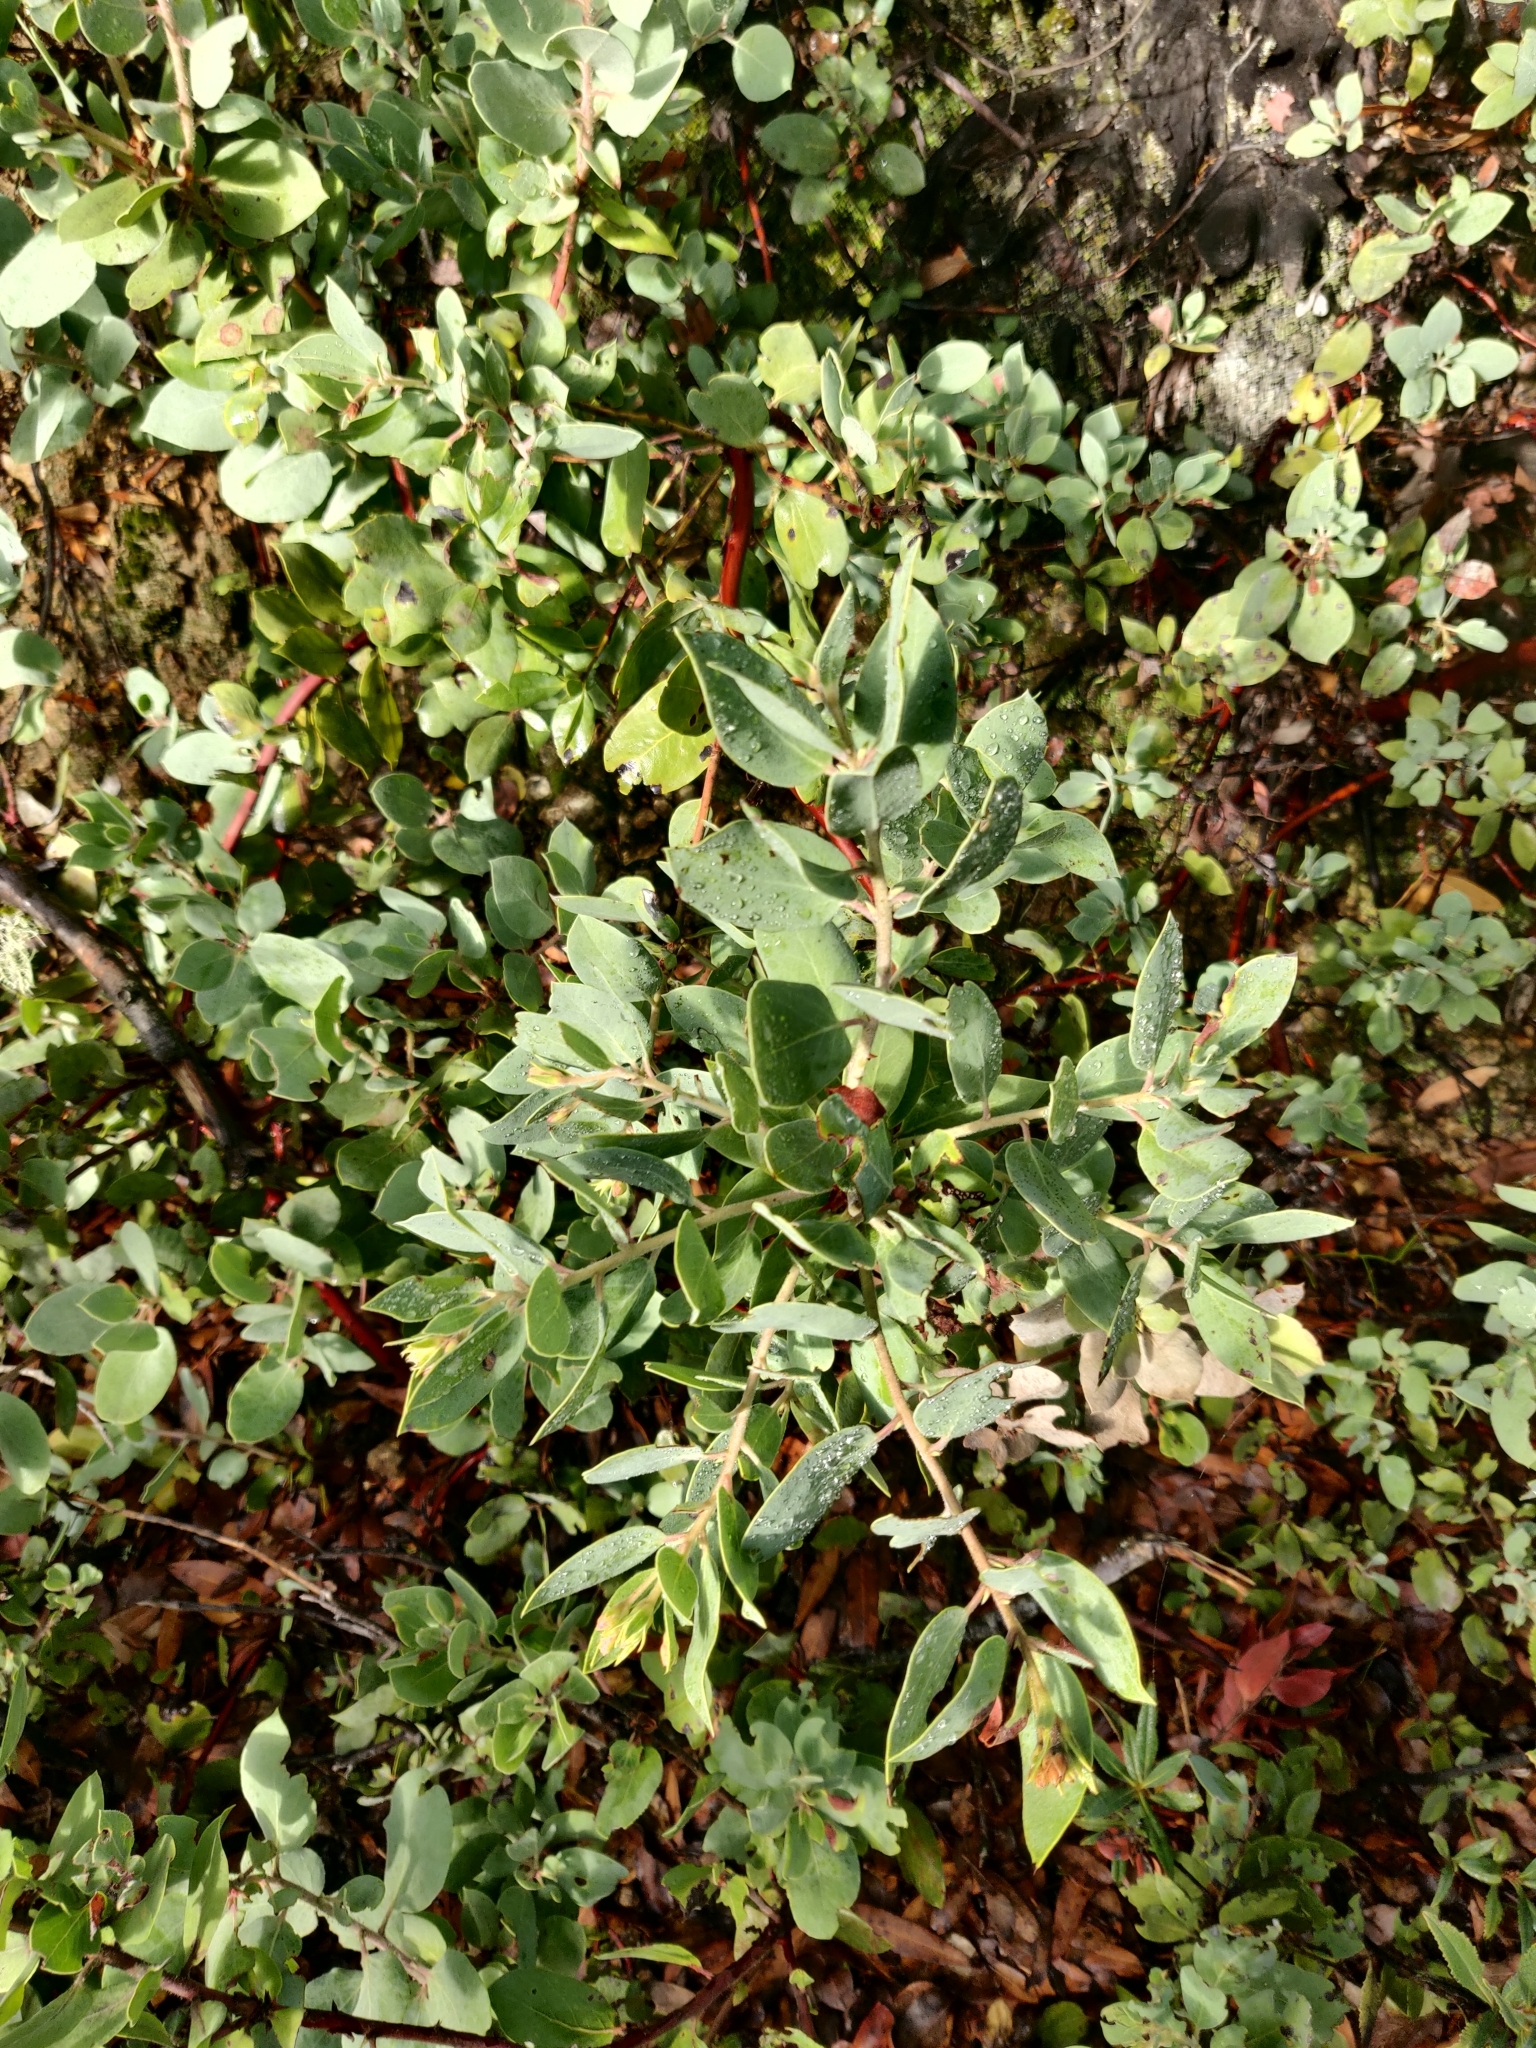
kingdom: Plantae
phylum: Tracheophyta
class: Magnoliopsida
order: Ericales
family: Ericaceae
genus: Arctostaphylos
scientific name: Arctostaphylos glandulosa
